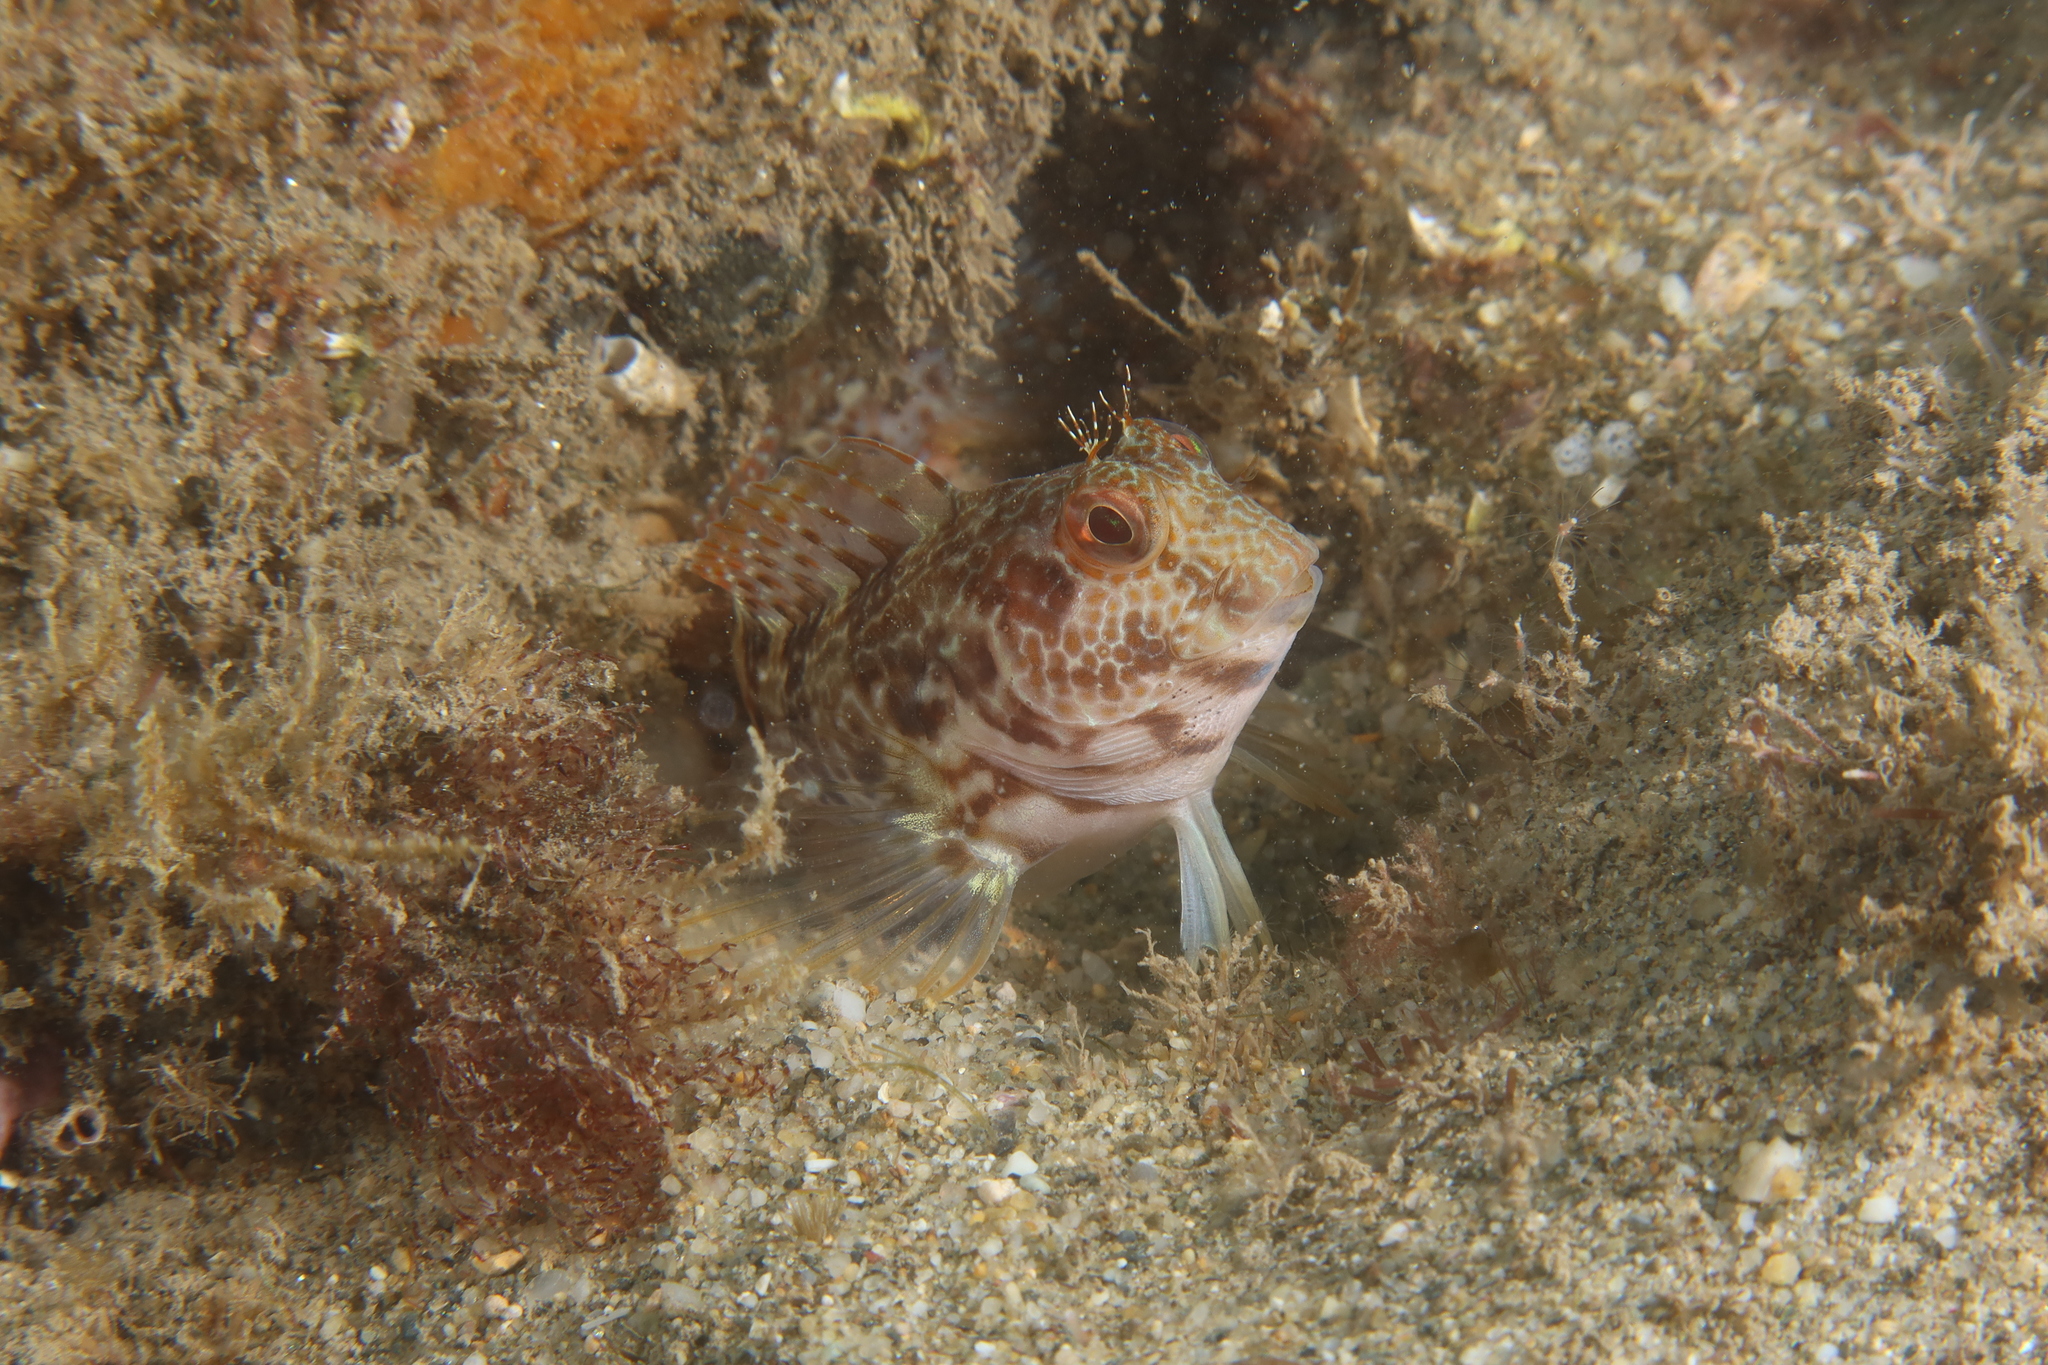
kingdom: Animalia
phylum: Chordata
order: Perciformes
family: Blenniidae
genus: Parablennius
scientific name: Parablennius pilicornis
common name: Ringneck blenny
